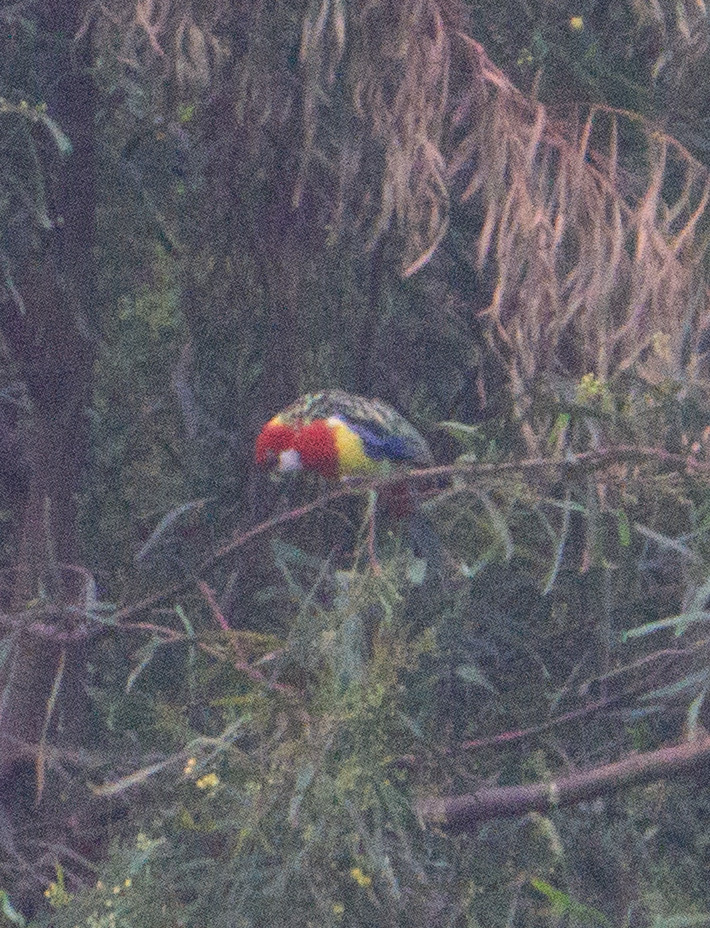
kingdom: Animalia
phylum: Chordata
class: Aves
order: Psittaciformes
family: Psittacidae
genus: Platycercus
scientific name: Platycercus eximius
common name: Eastern rosella
